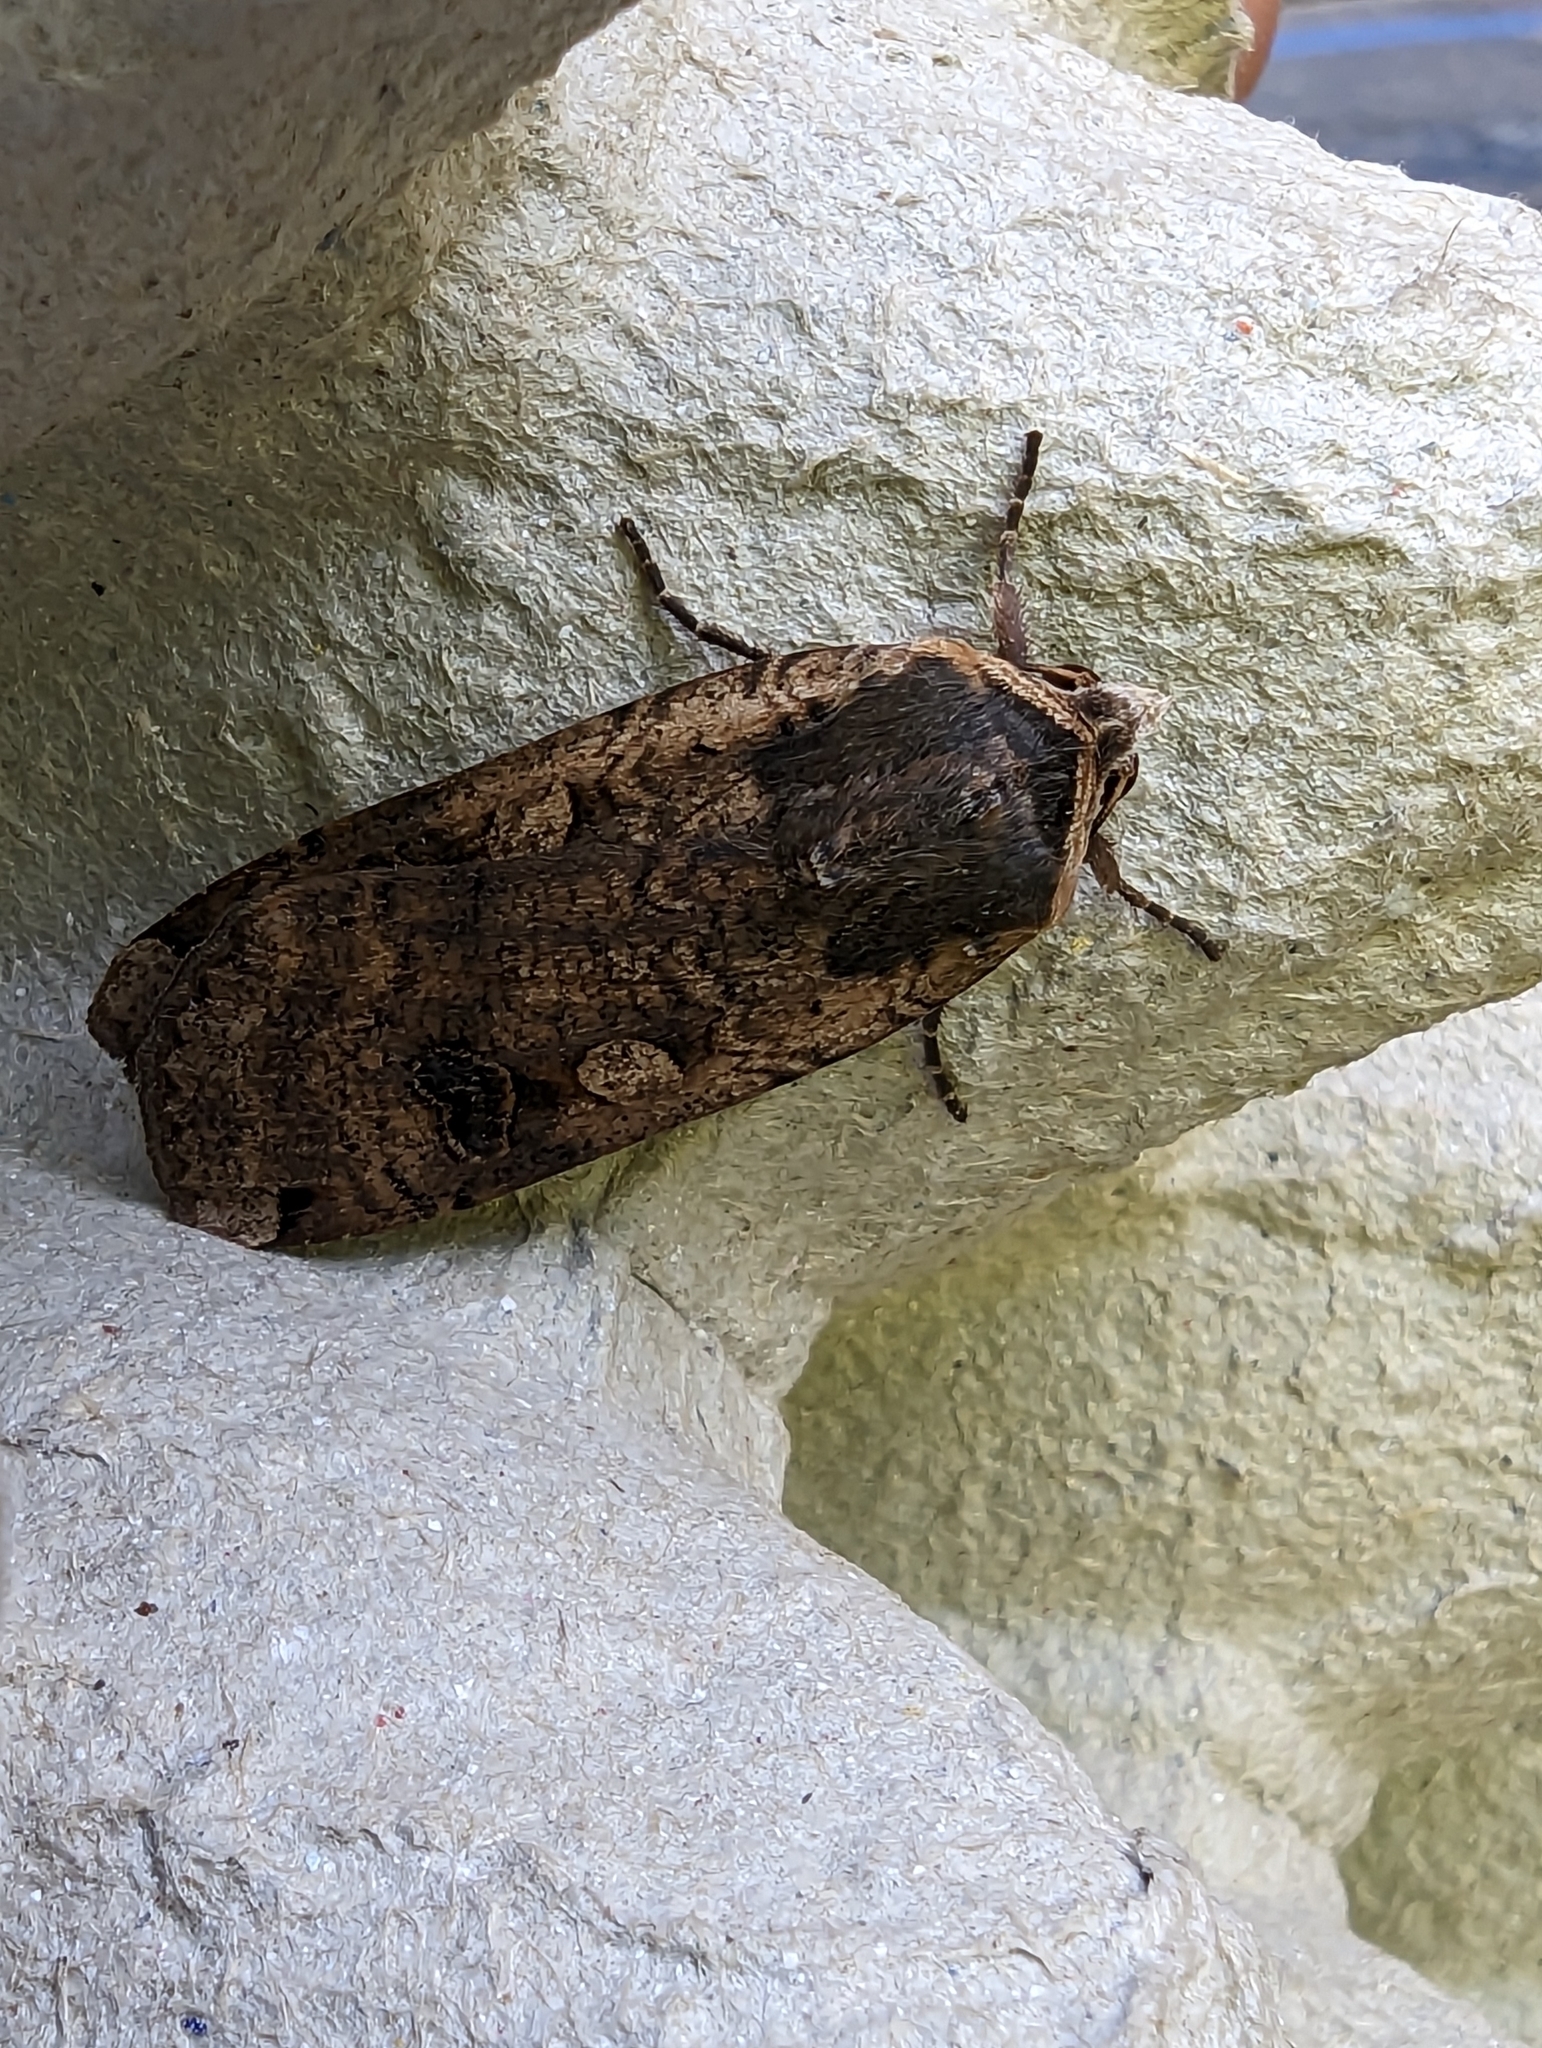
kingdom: Animalia
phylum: Arthropoda
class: Insecta
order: Lepidoptera
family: Noctuidae
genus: Noctua
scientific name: Noctua pronuba
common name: Large yellow underwing
